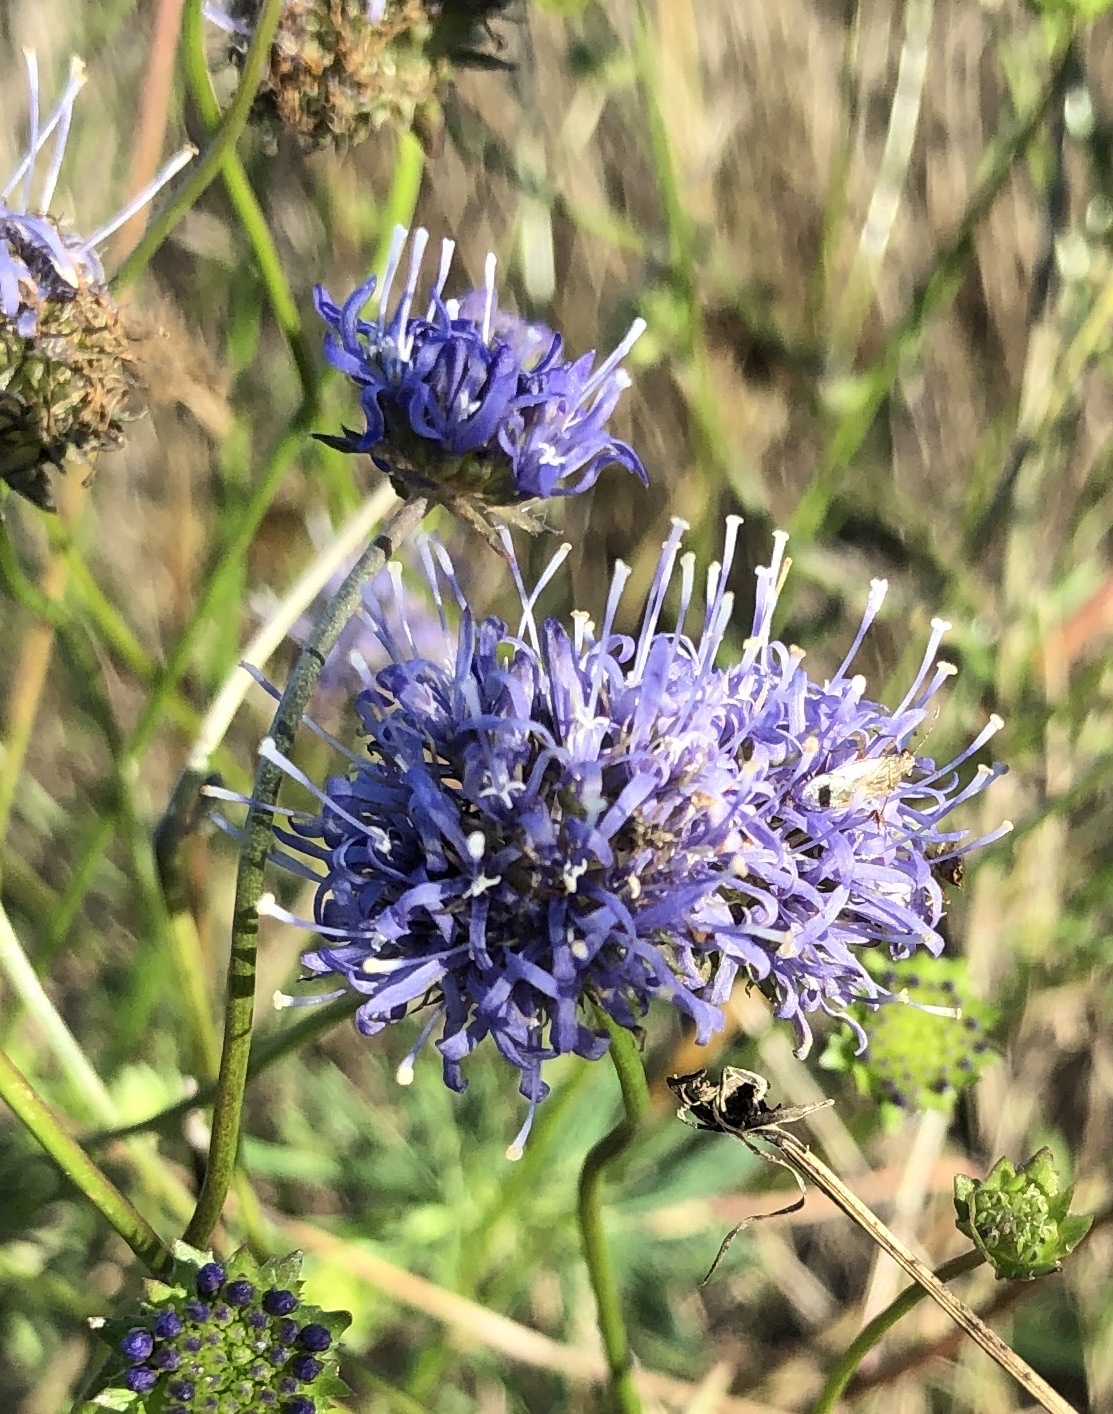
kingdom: Plantae
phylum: Tracheophyta
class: Magnoliopsida
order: Asterales
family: Campanulaceae
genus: Jasione
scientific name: Jasione montana
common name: Sheep's-bit
